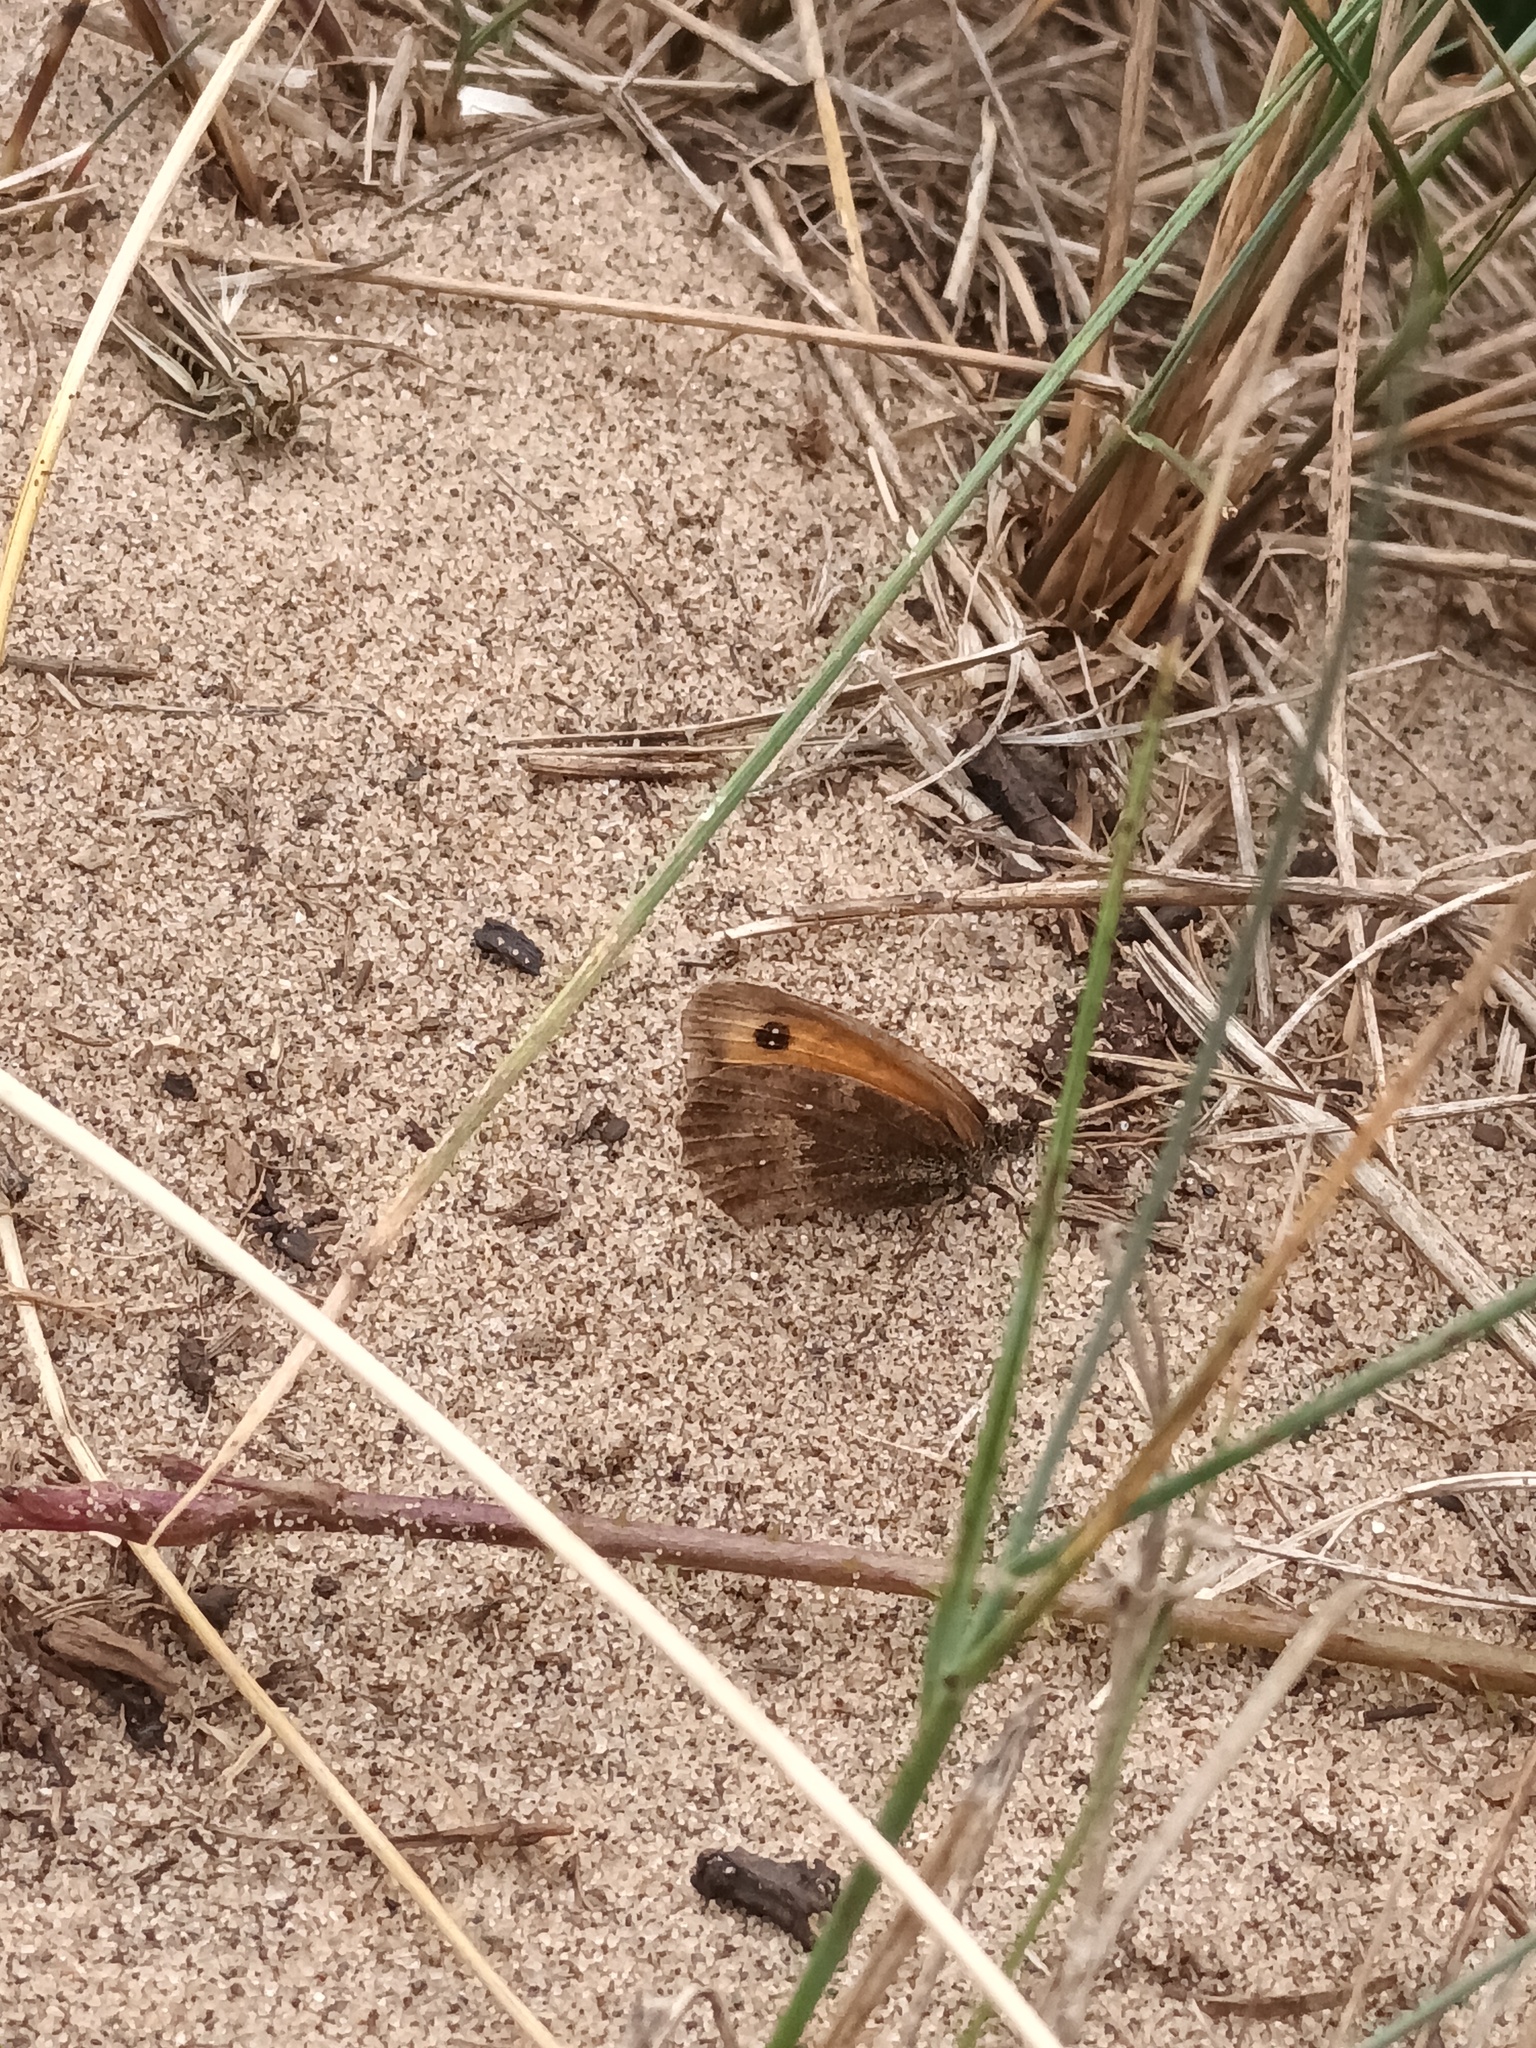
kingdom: Animalia
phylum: Arthropoda
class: Insecta
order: Lepidoptera
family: Nymphalidae
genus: Pyronia
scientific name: Pyronia tithonus
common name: Gatekeeper
